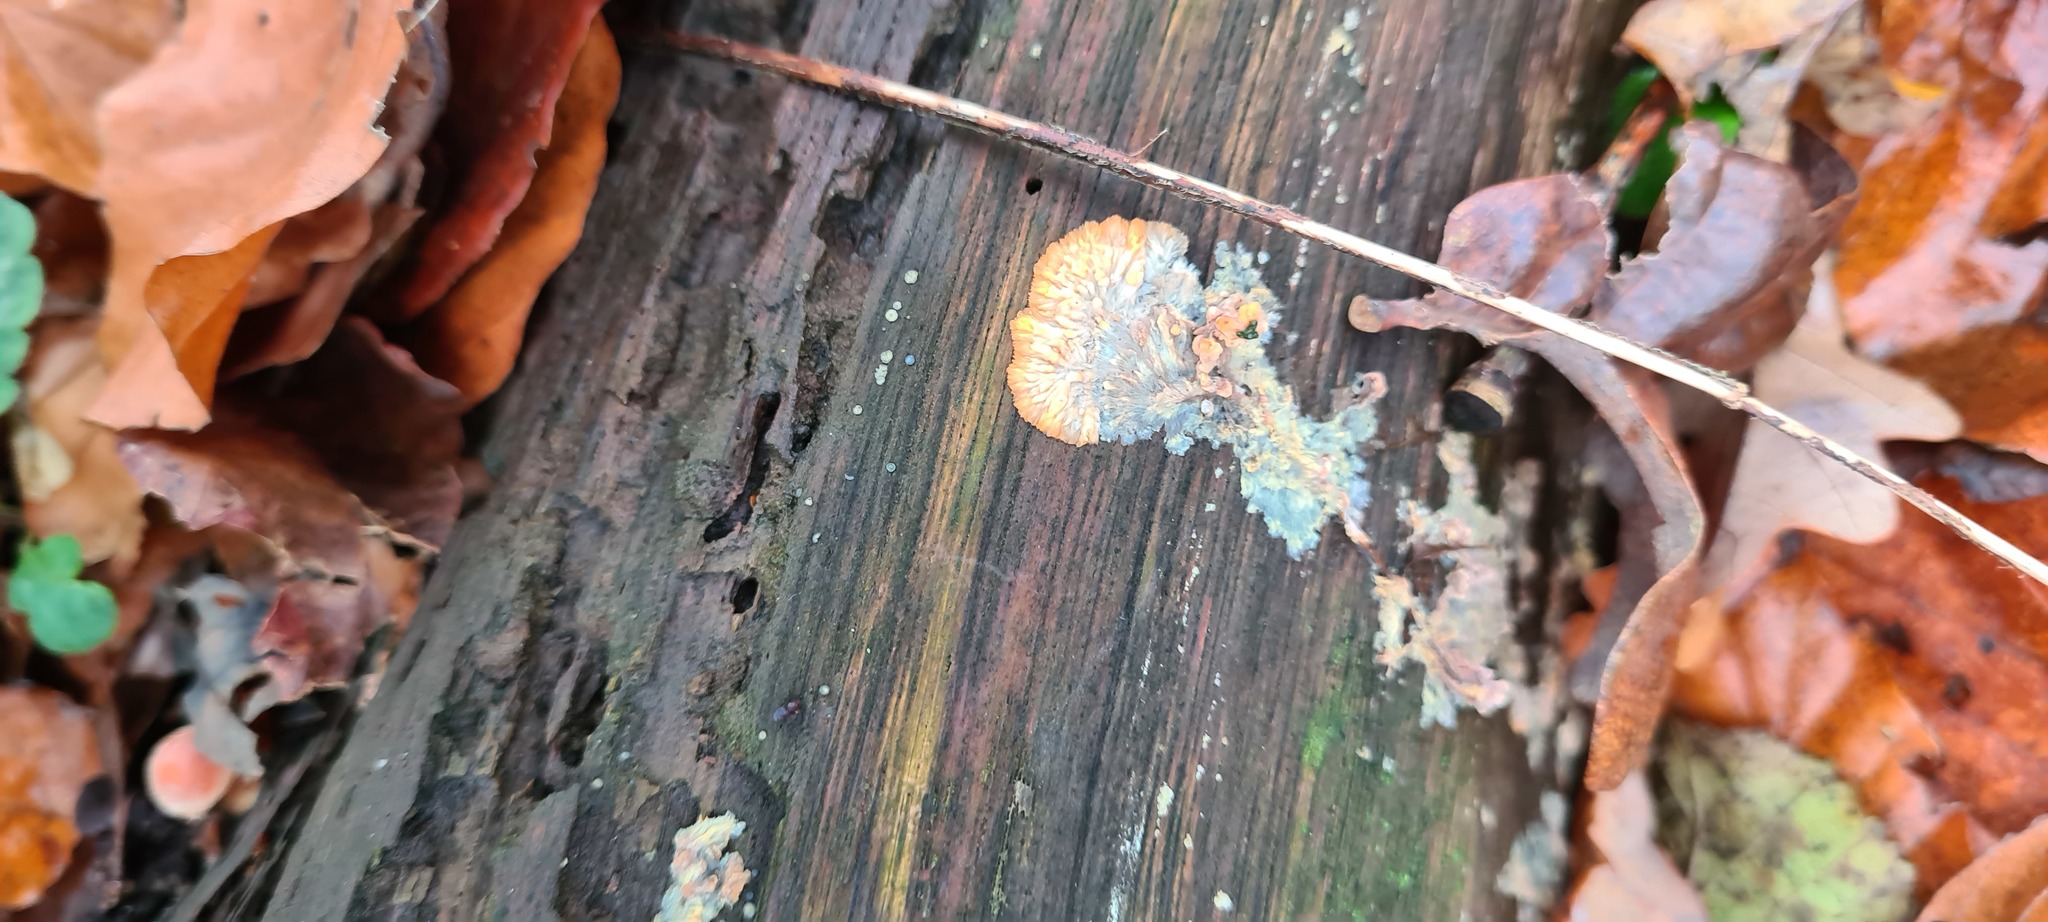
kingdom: Fungi
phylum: Basidiomycota
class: Agaricomycetes
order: Polyporales
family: Meruliaceae
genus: Phlebia
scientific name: Phlebia radiata
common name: Wrinkled crust
